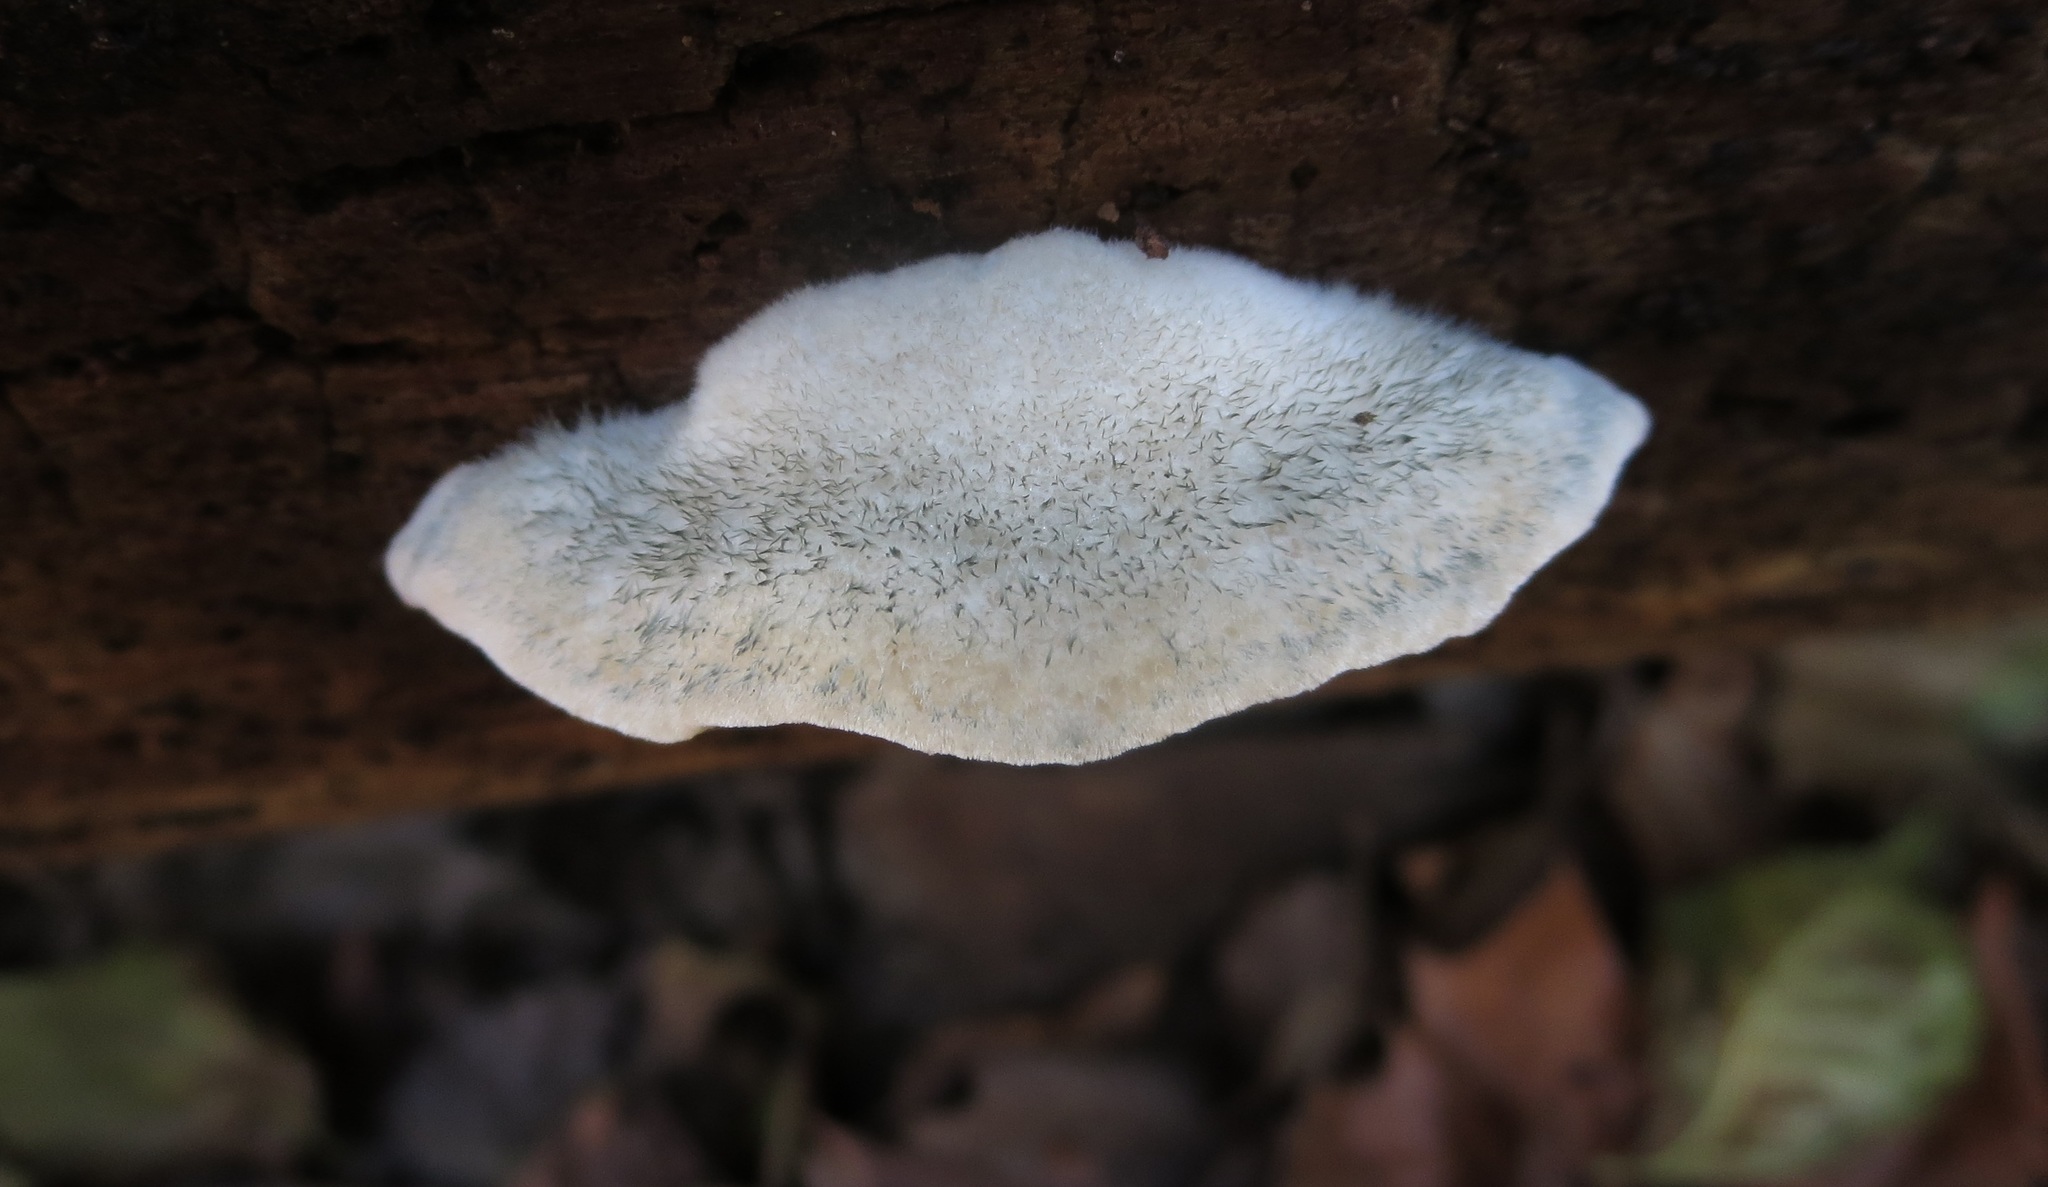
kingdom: Fungi
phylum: Basidiomycota
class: Agaricomycetes
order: Polyporales
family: Polyporaceae
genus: Cyanosporus
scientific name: Cyanosporus caesius
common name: Blue cheese polypore
